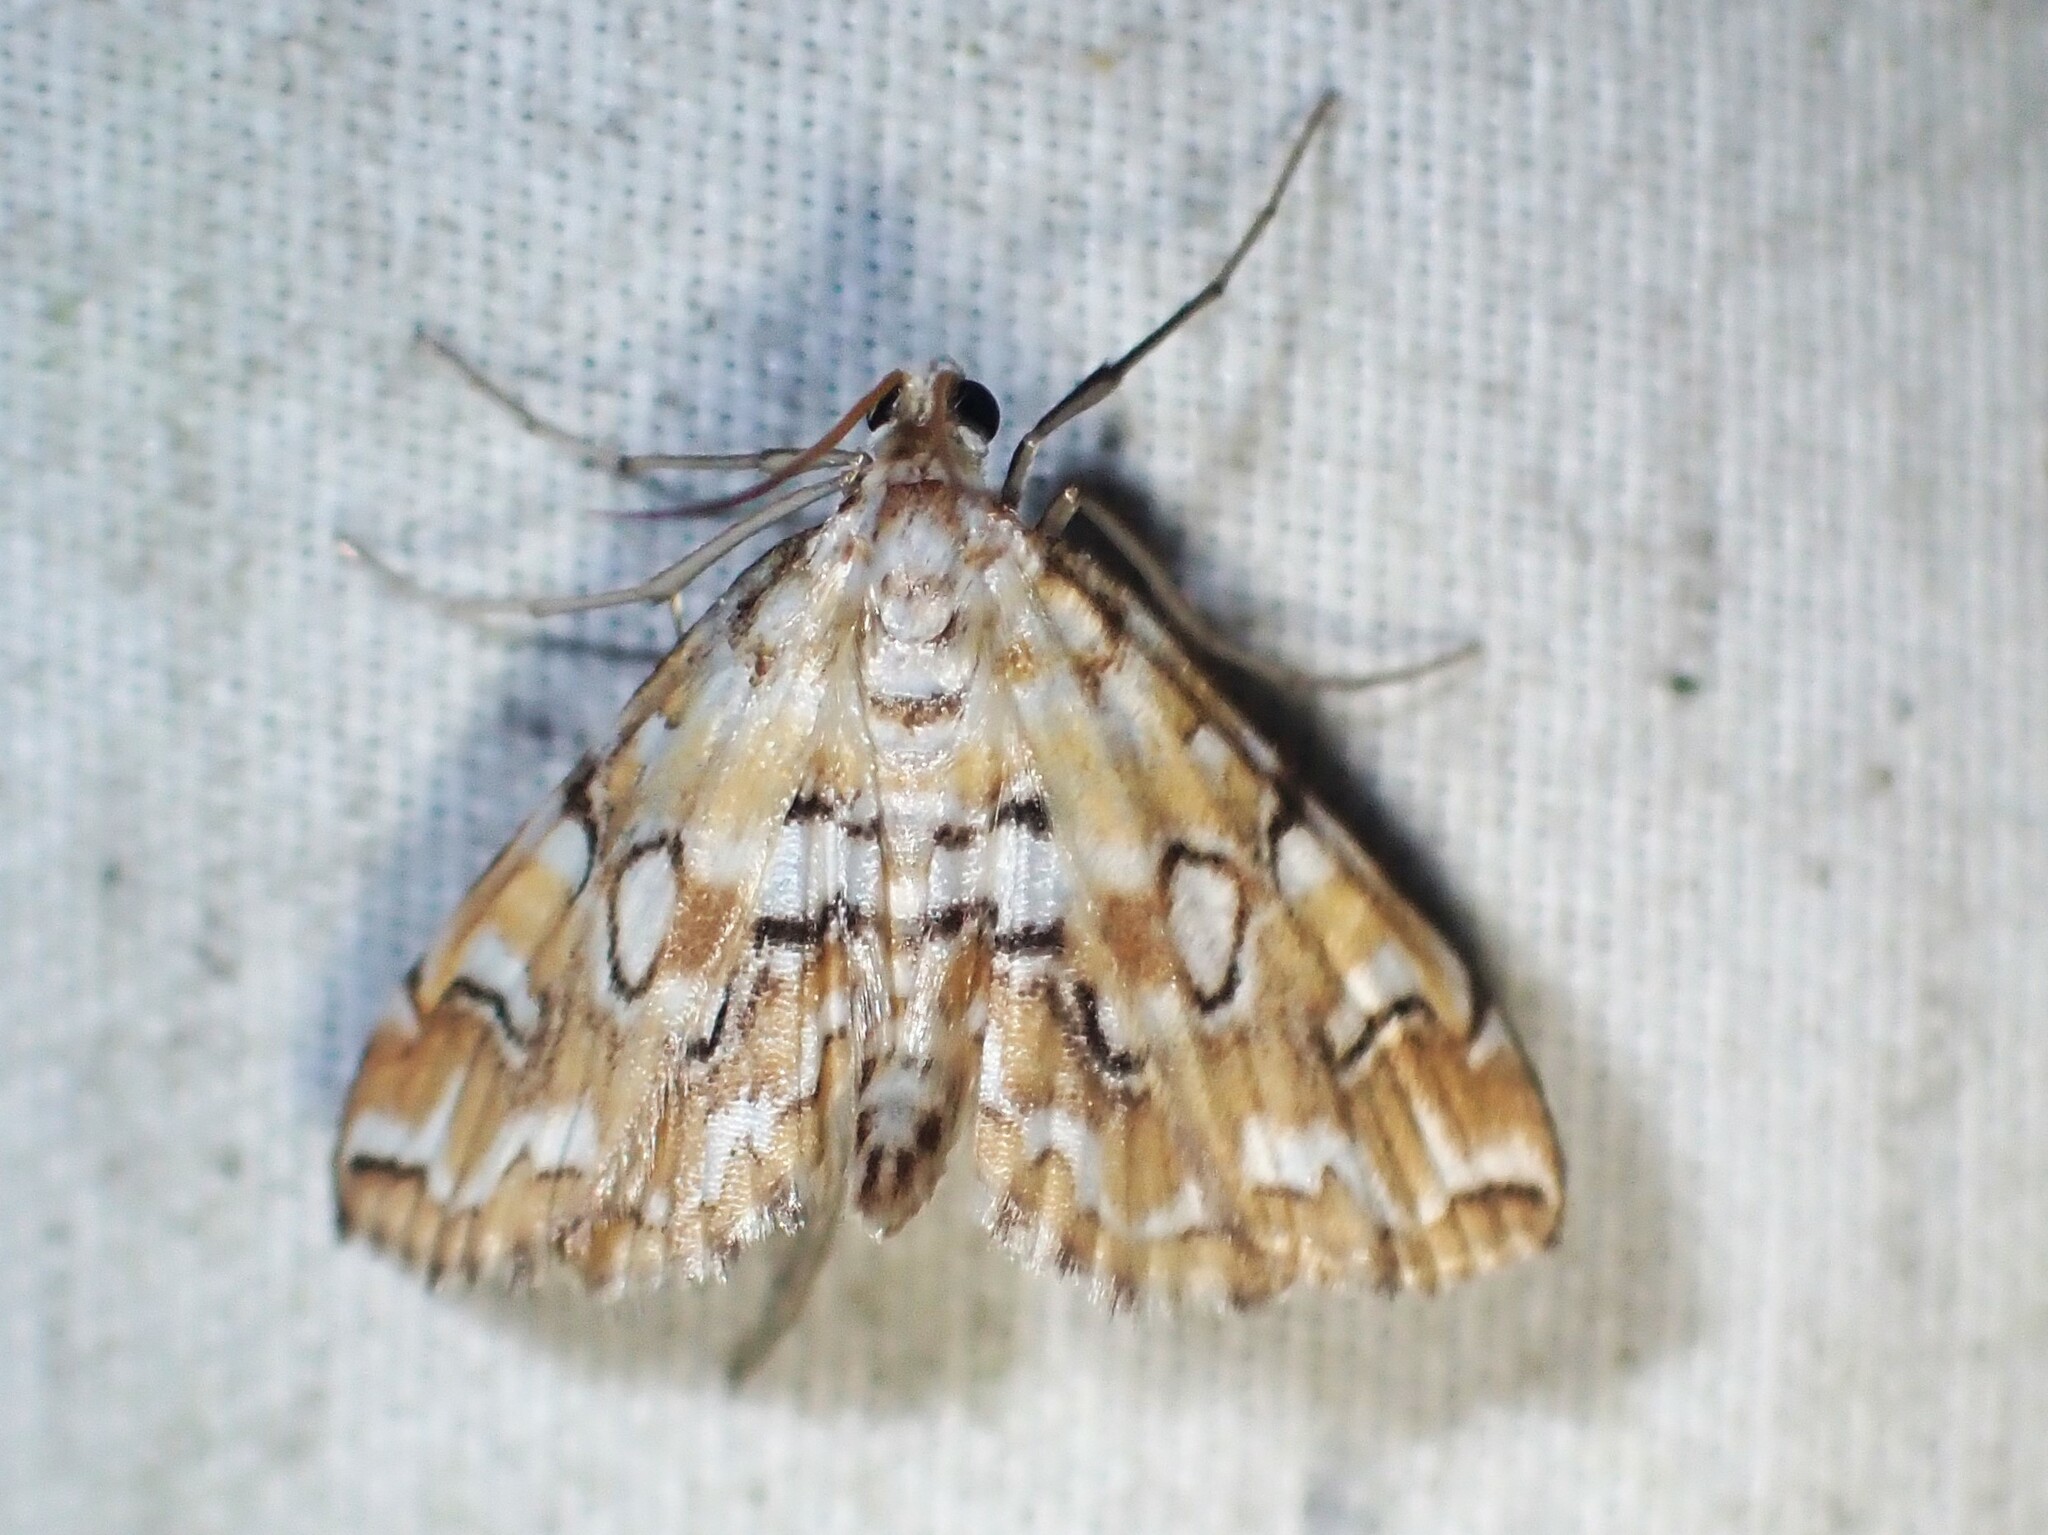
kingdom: Animalia
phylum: Arthropoda
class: Insecta
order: Lepidoptera
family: Crambidae
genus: Elophila
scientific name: Elophila icciusalis
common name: Pondside pyralid moth
